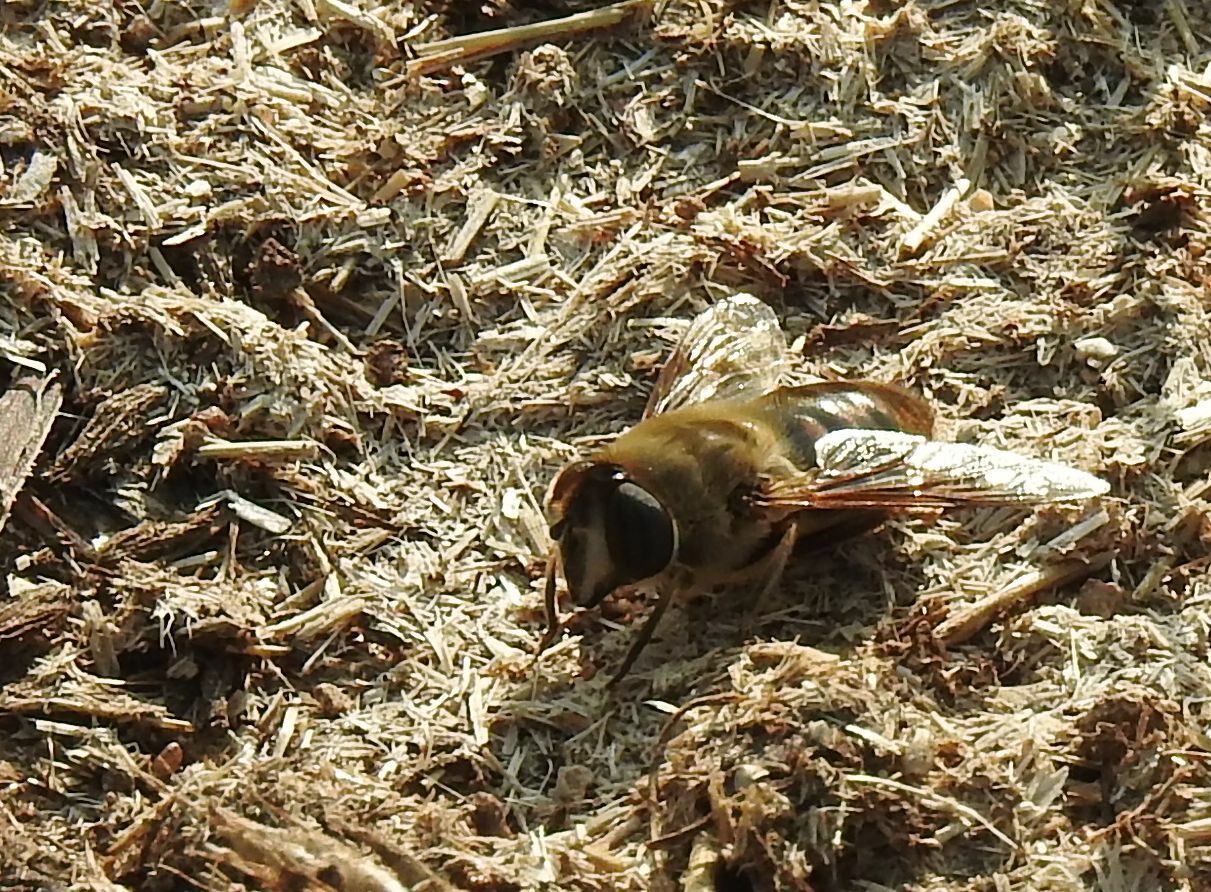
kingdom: Animalia
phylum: Arthropoda
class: Insecta
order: Diptera
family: Syrphidae
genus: Eristalis
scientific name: Eristalis tenax
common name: Drone fly
